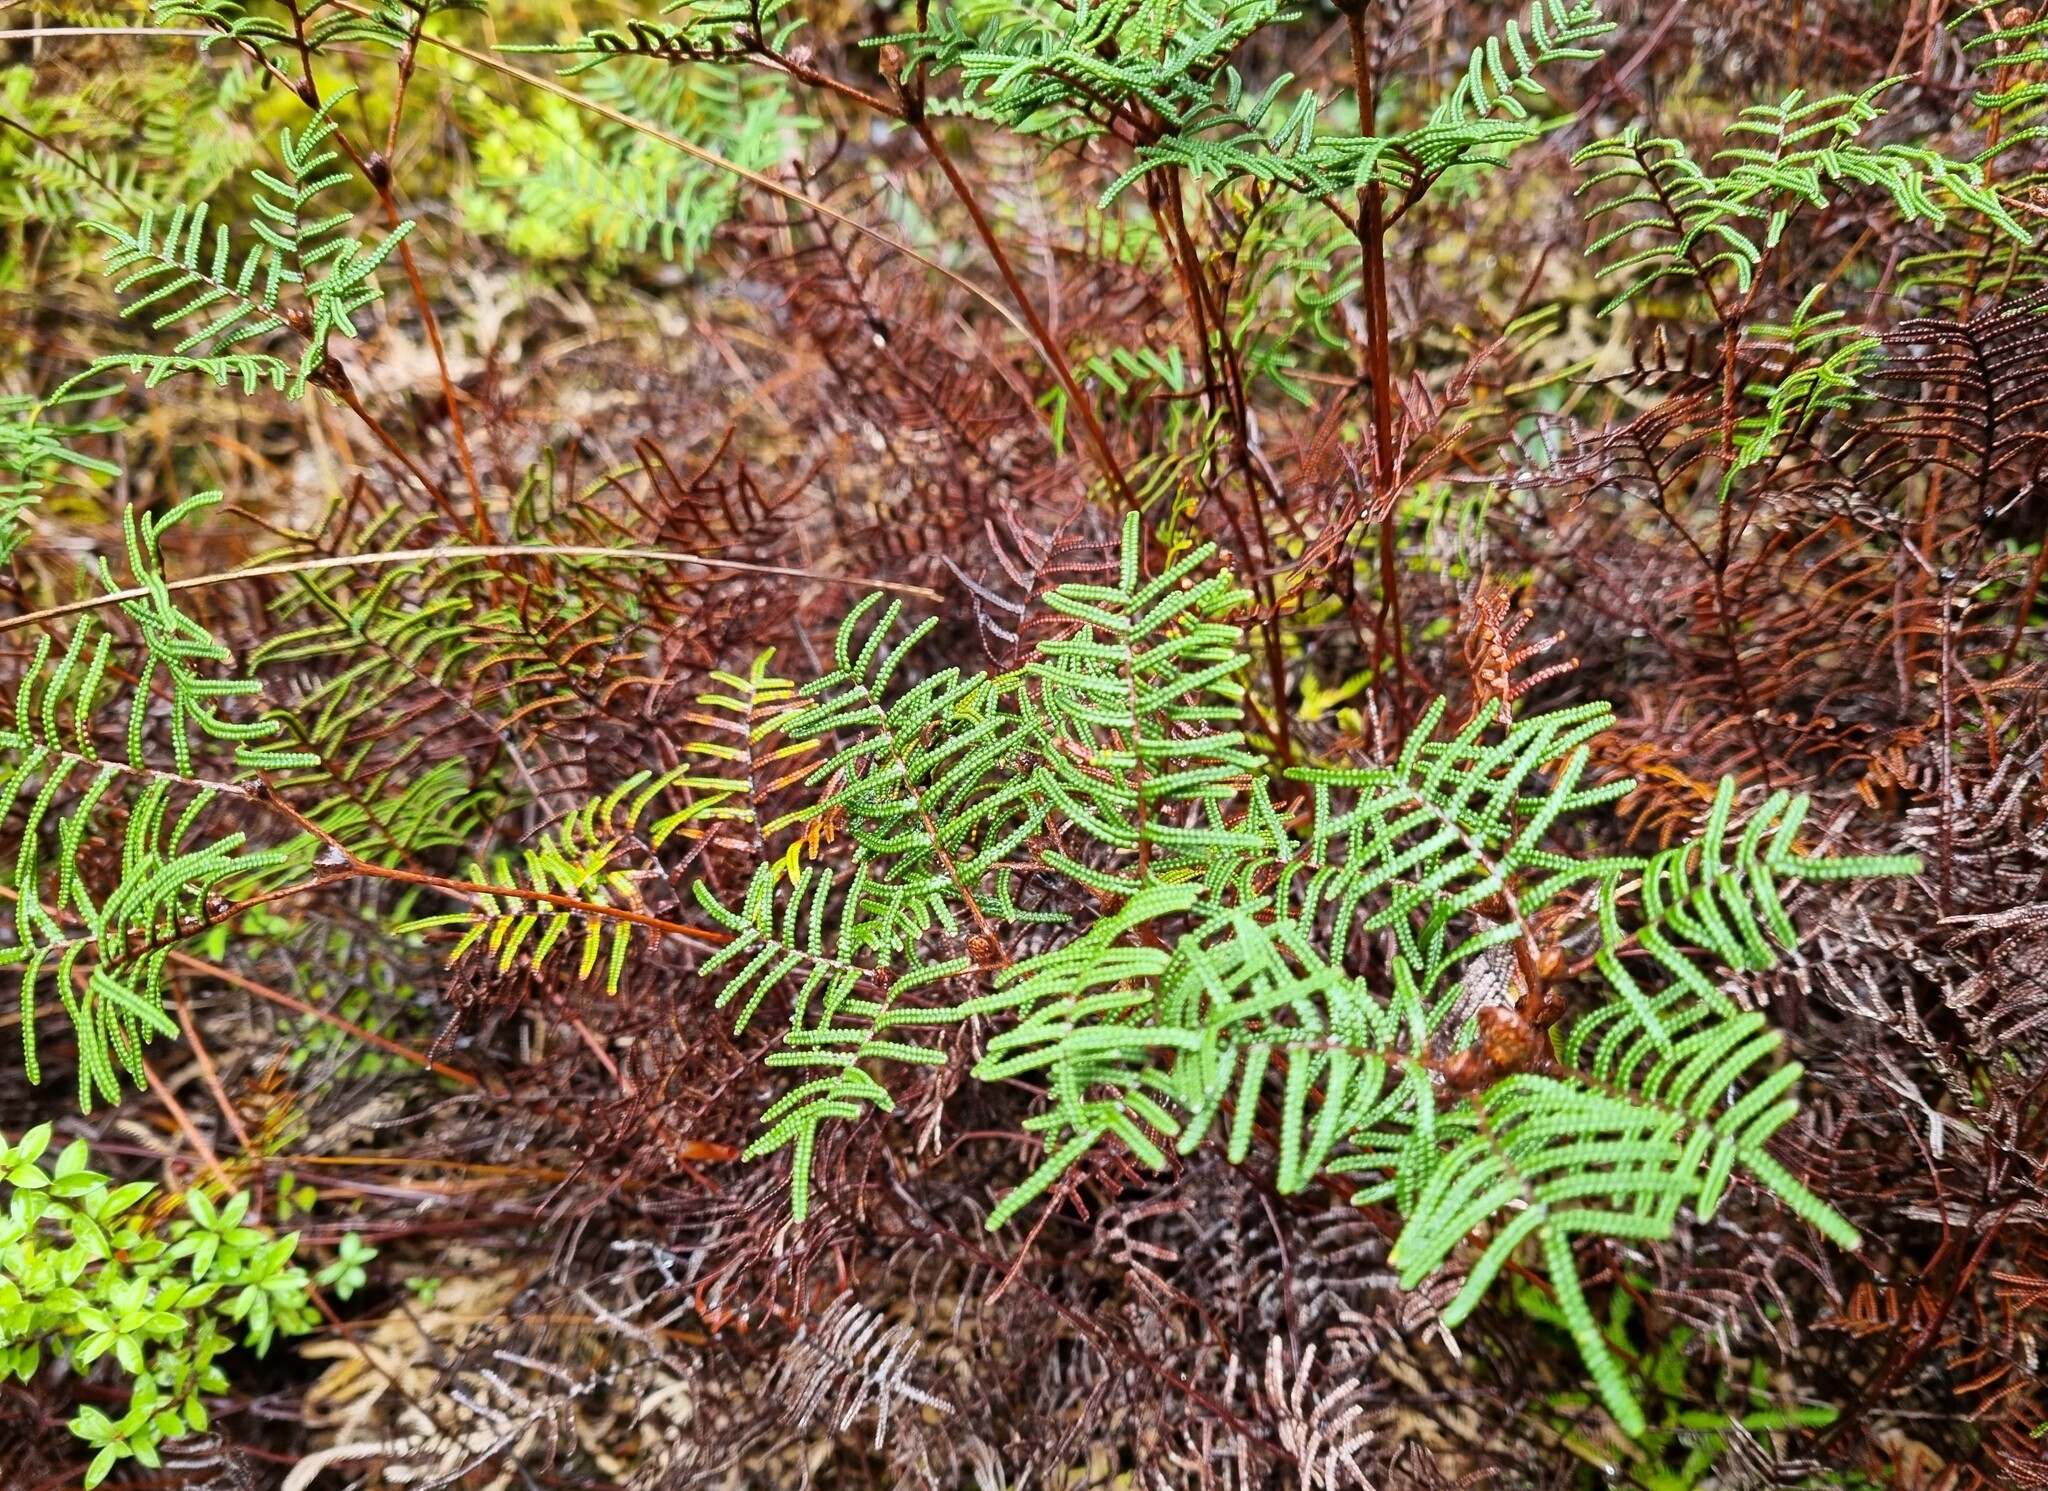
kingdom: Plantae
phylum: Tracheophyta
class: Polypodiopsida
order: Gleicheniales
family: Gleicheniaceae
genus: Gleichenia
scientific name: Gleichenia alpina
